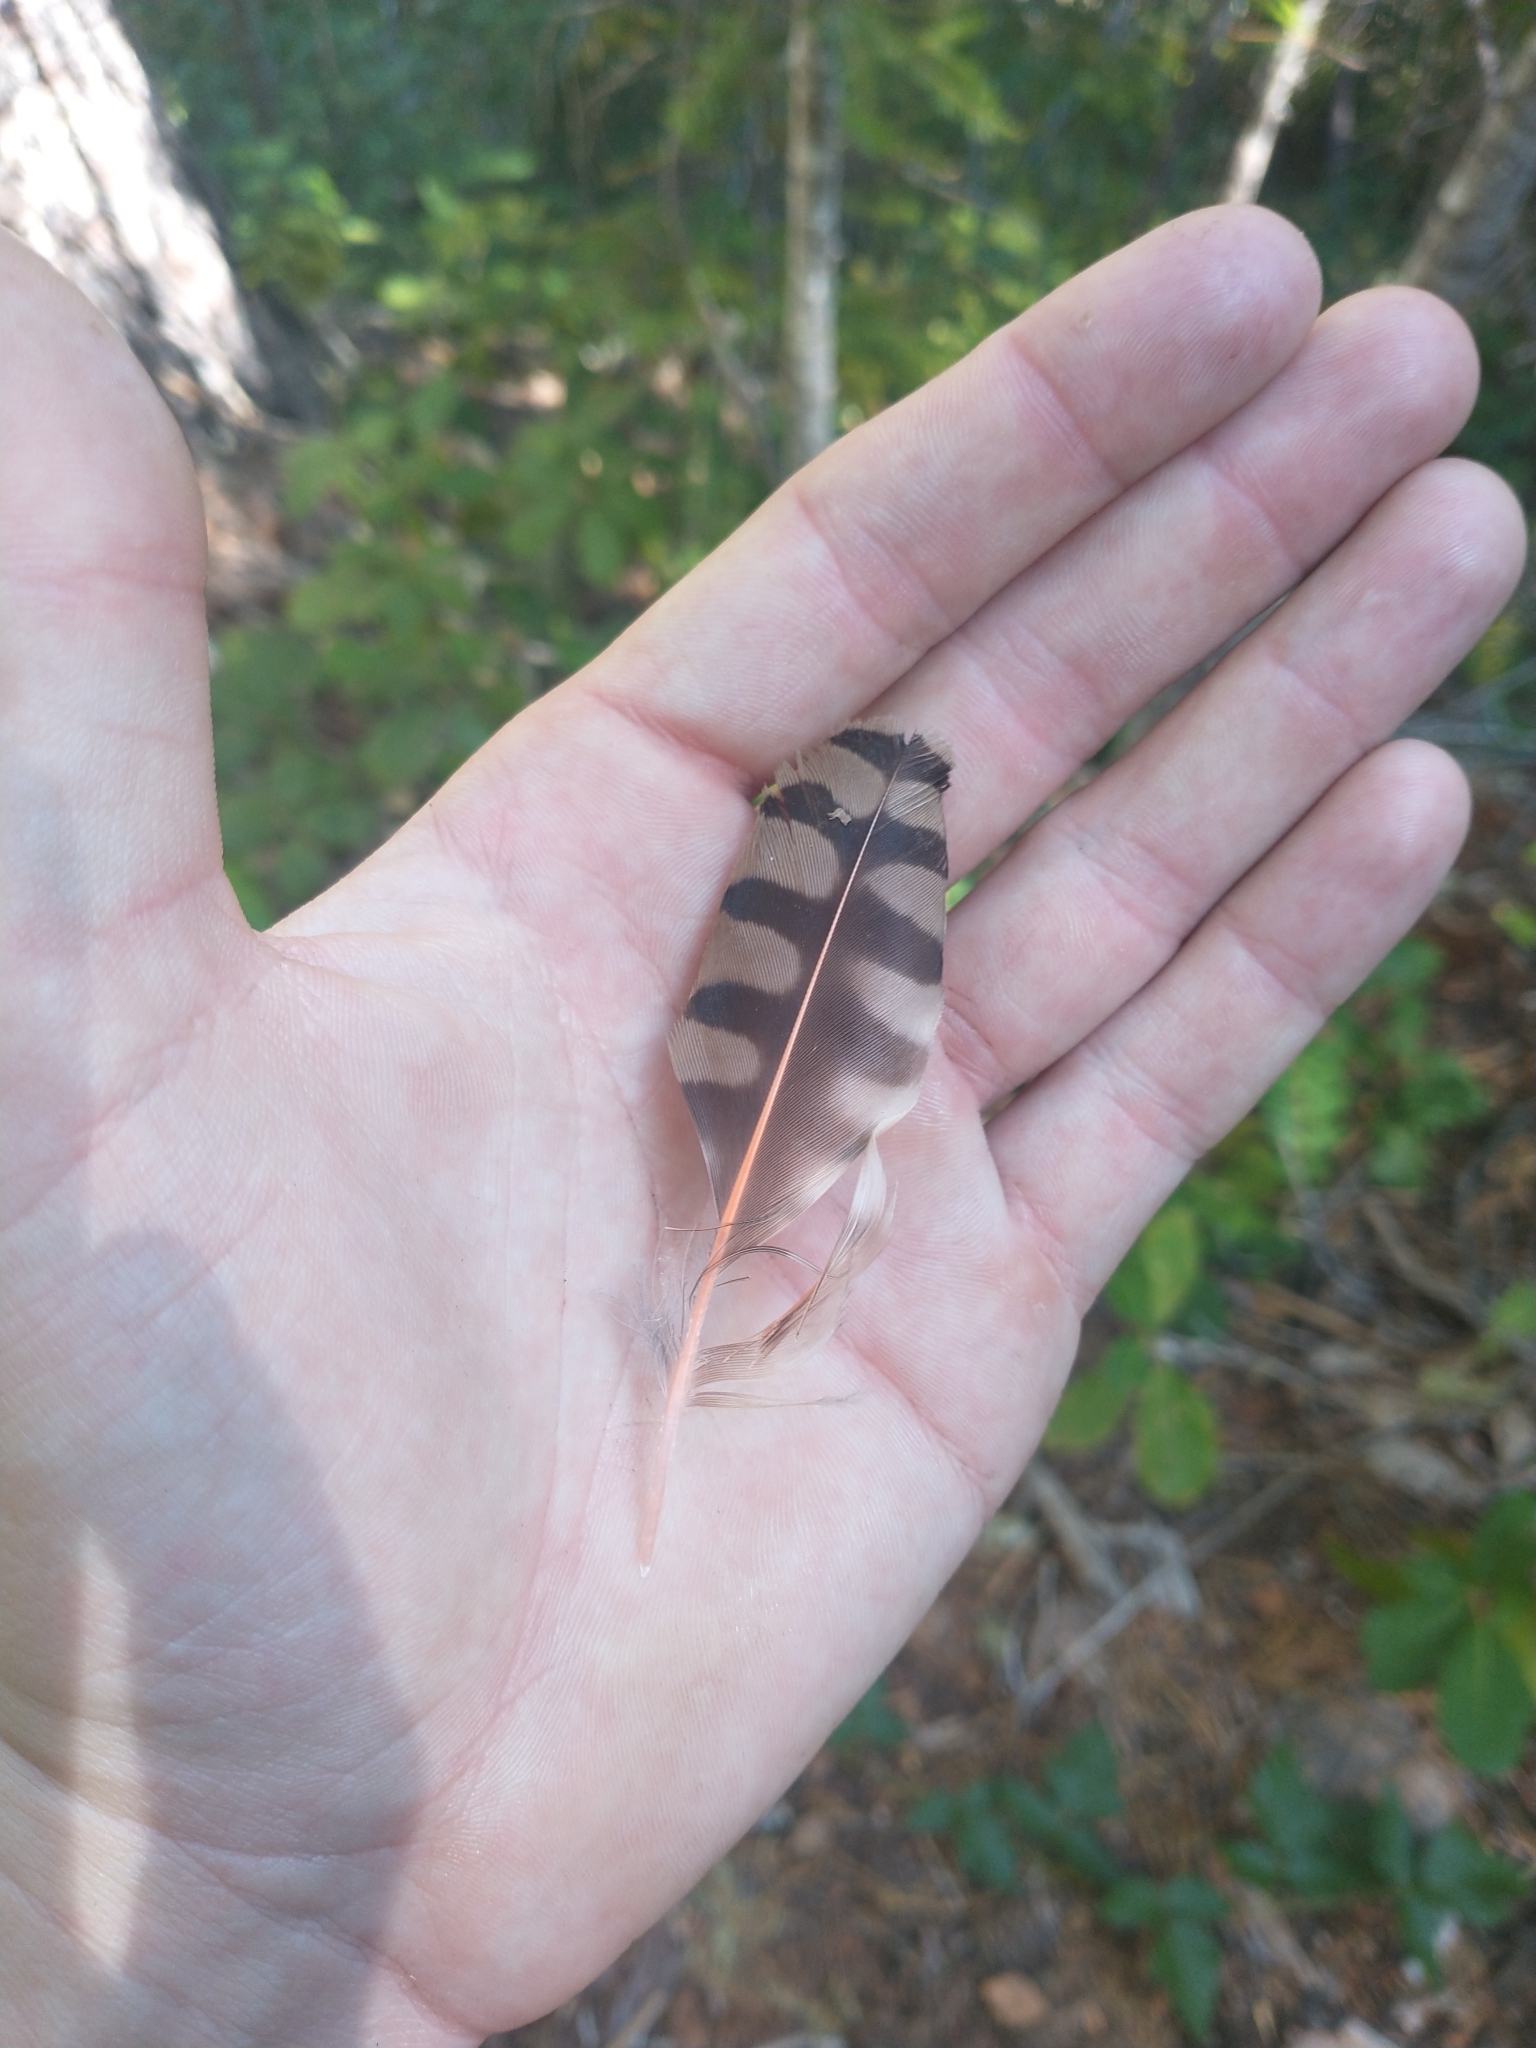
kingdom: Animalia
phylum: Chordata
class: Aves
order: Piciformes
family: Picidae
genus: Colaptes
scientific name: Colaptes auratus
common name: Northern flicker
